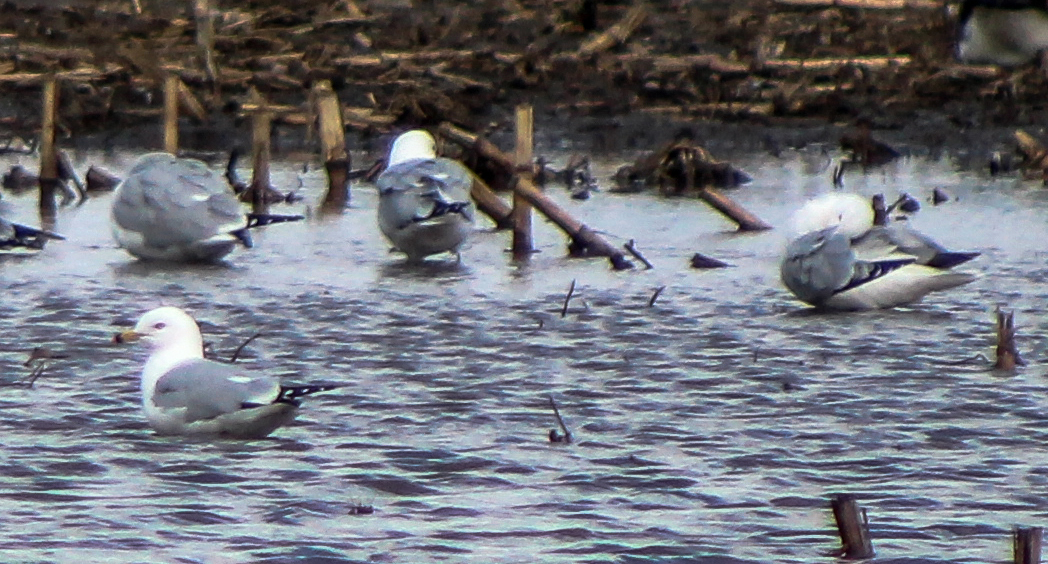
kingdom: Animalia
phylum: Chordata
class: Aves
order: Charadriiformes
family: Laridae
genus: Larus
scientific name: Larus delawarensis
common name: Ring-billed gull
